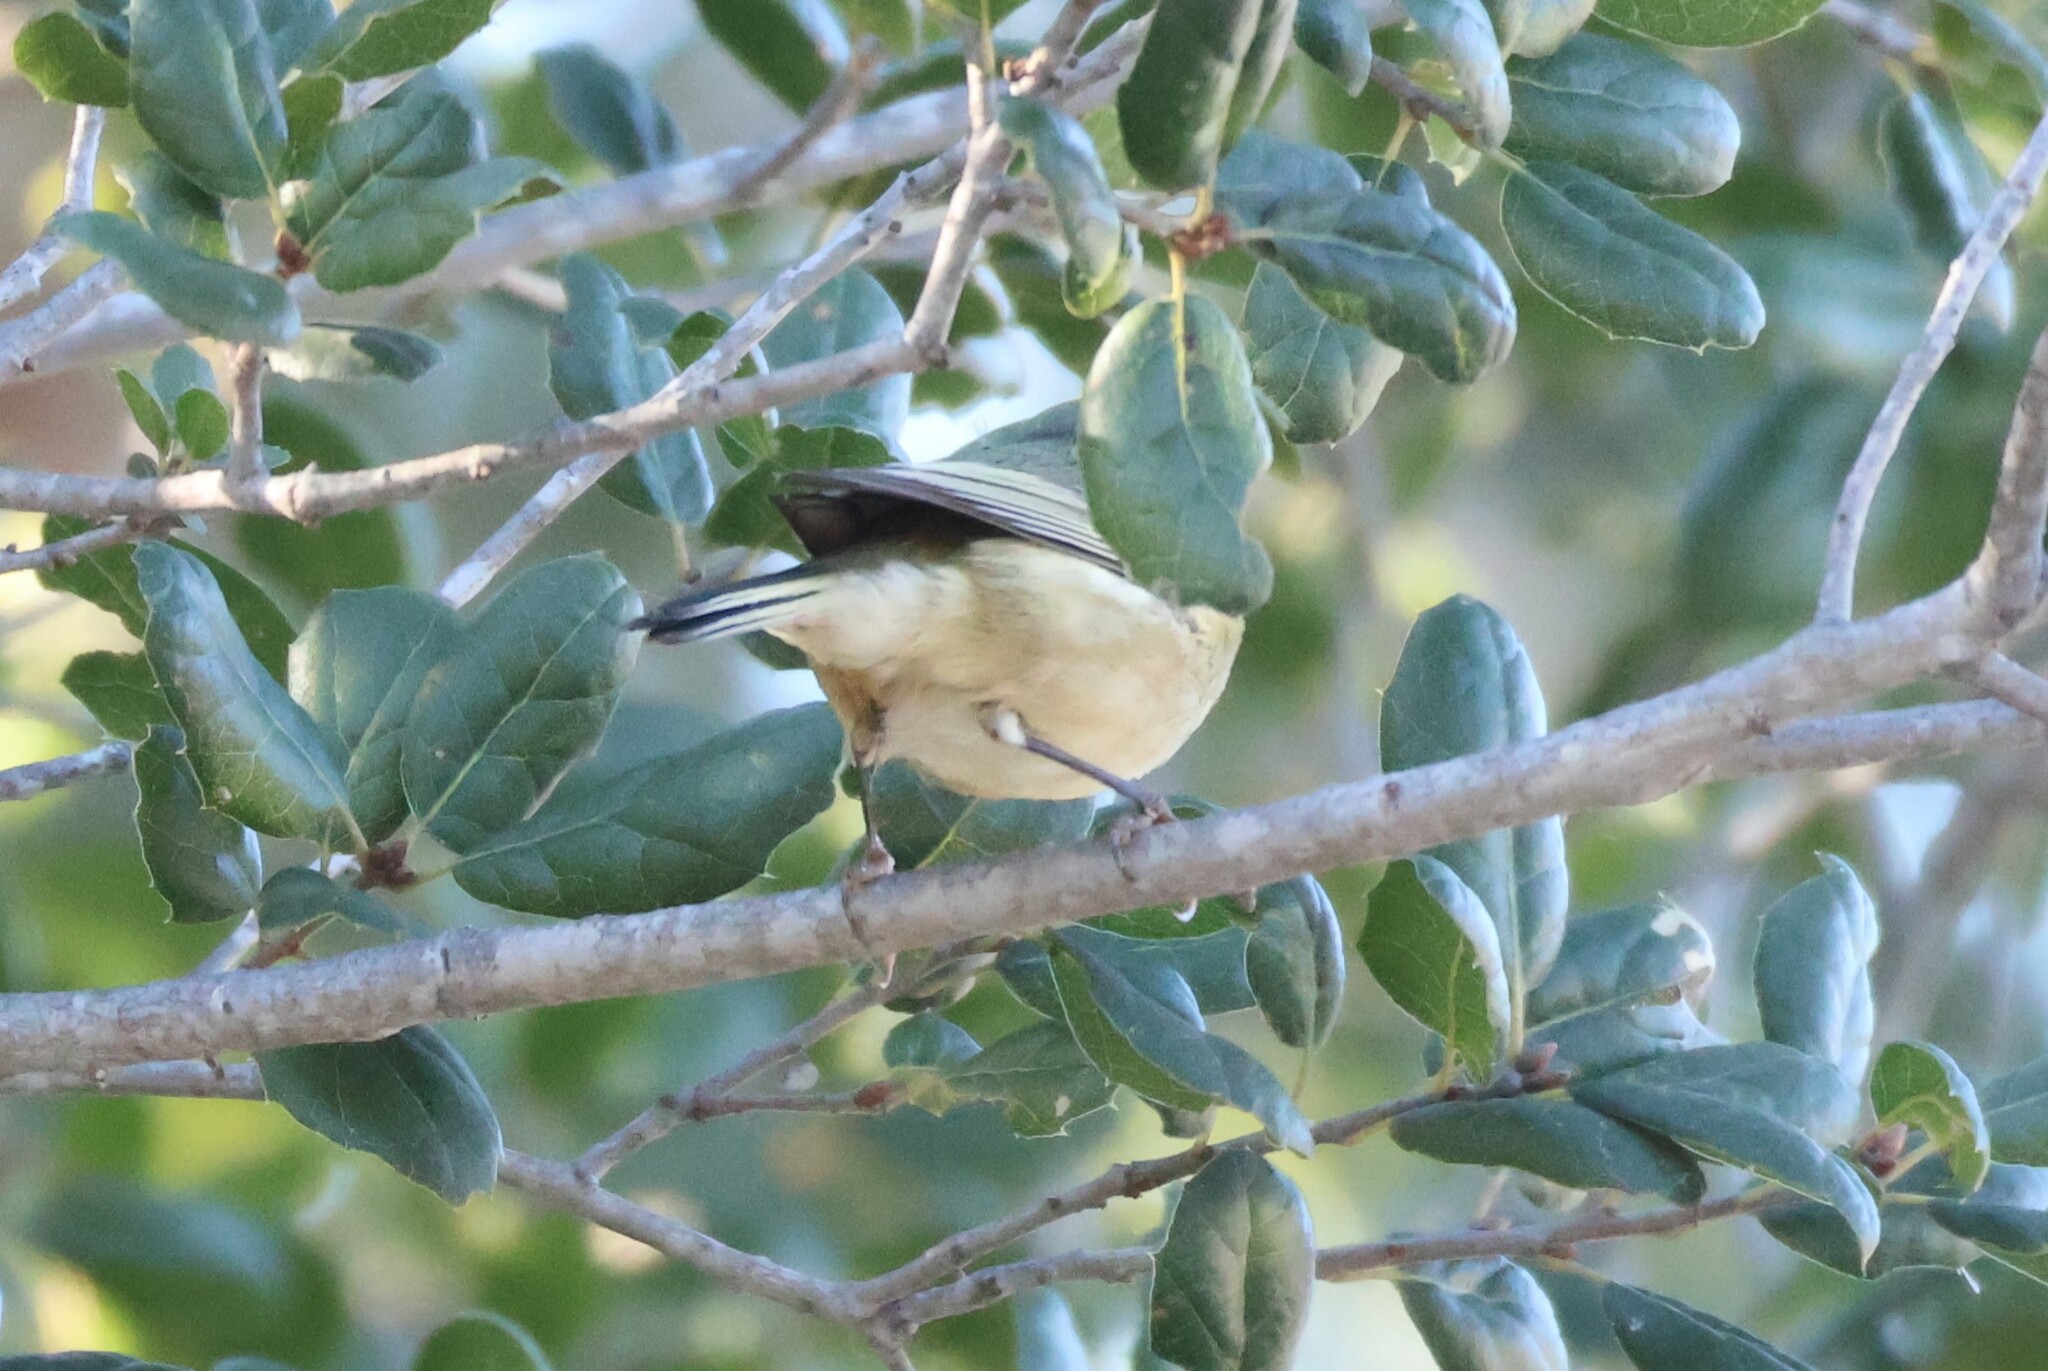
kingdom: Animalia
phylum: Chordata
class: Aves
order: Passeriformes
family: Regulidae
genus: Regulus
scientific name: Regulus calendula
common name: Ruby-crowned kinglet
